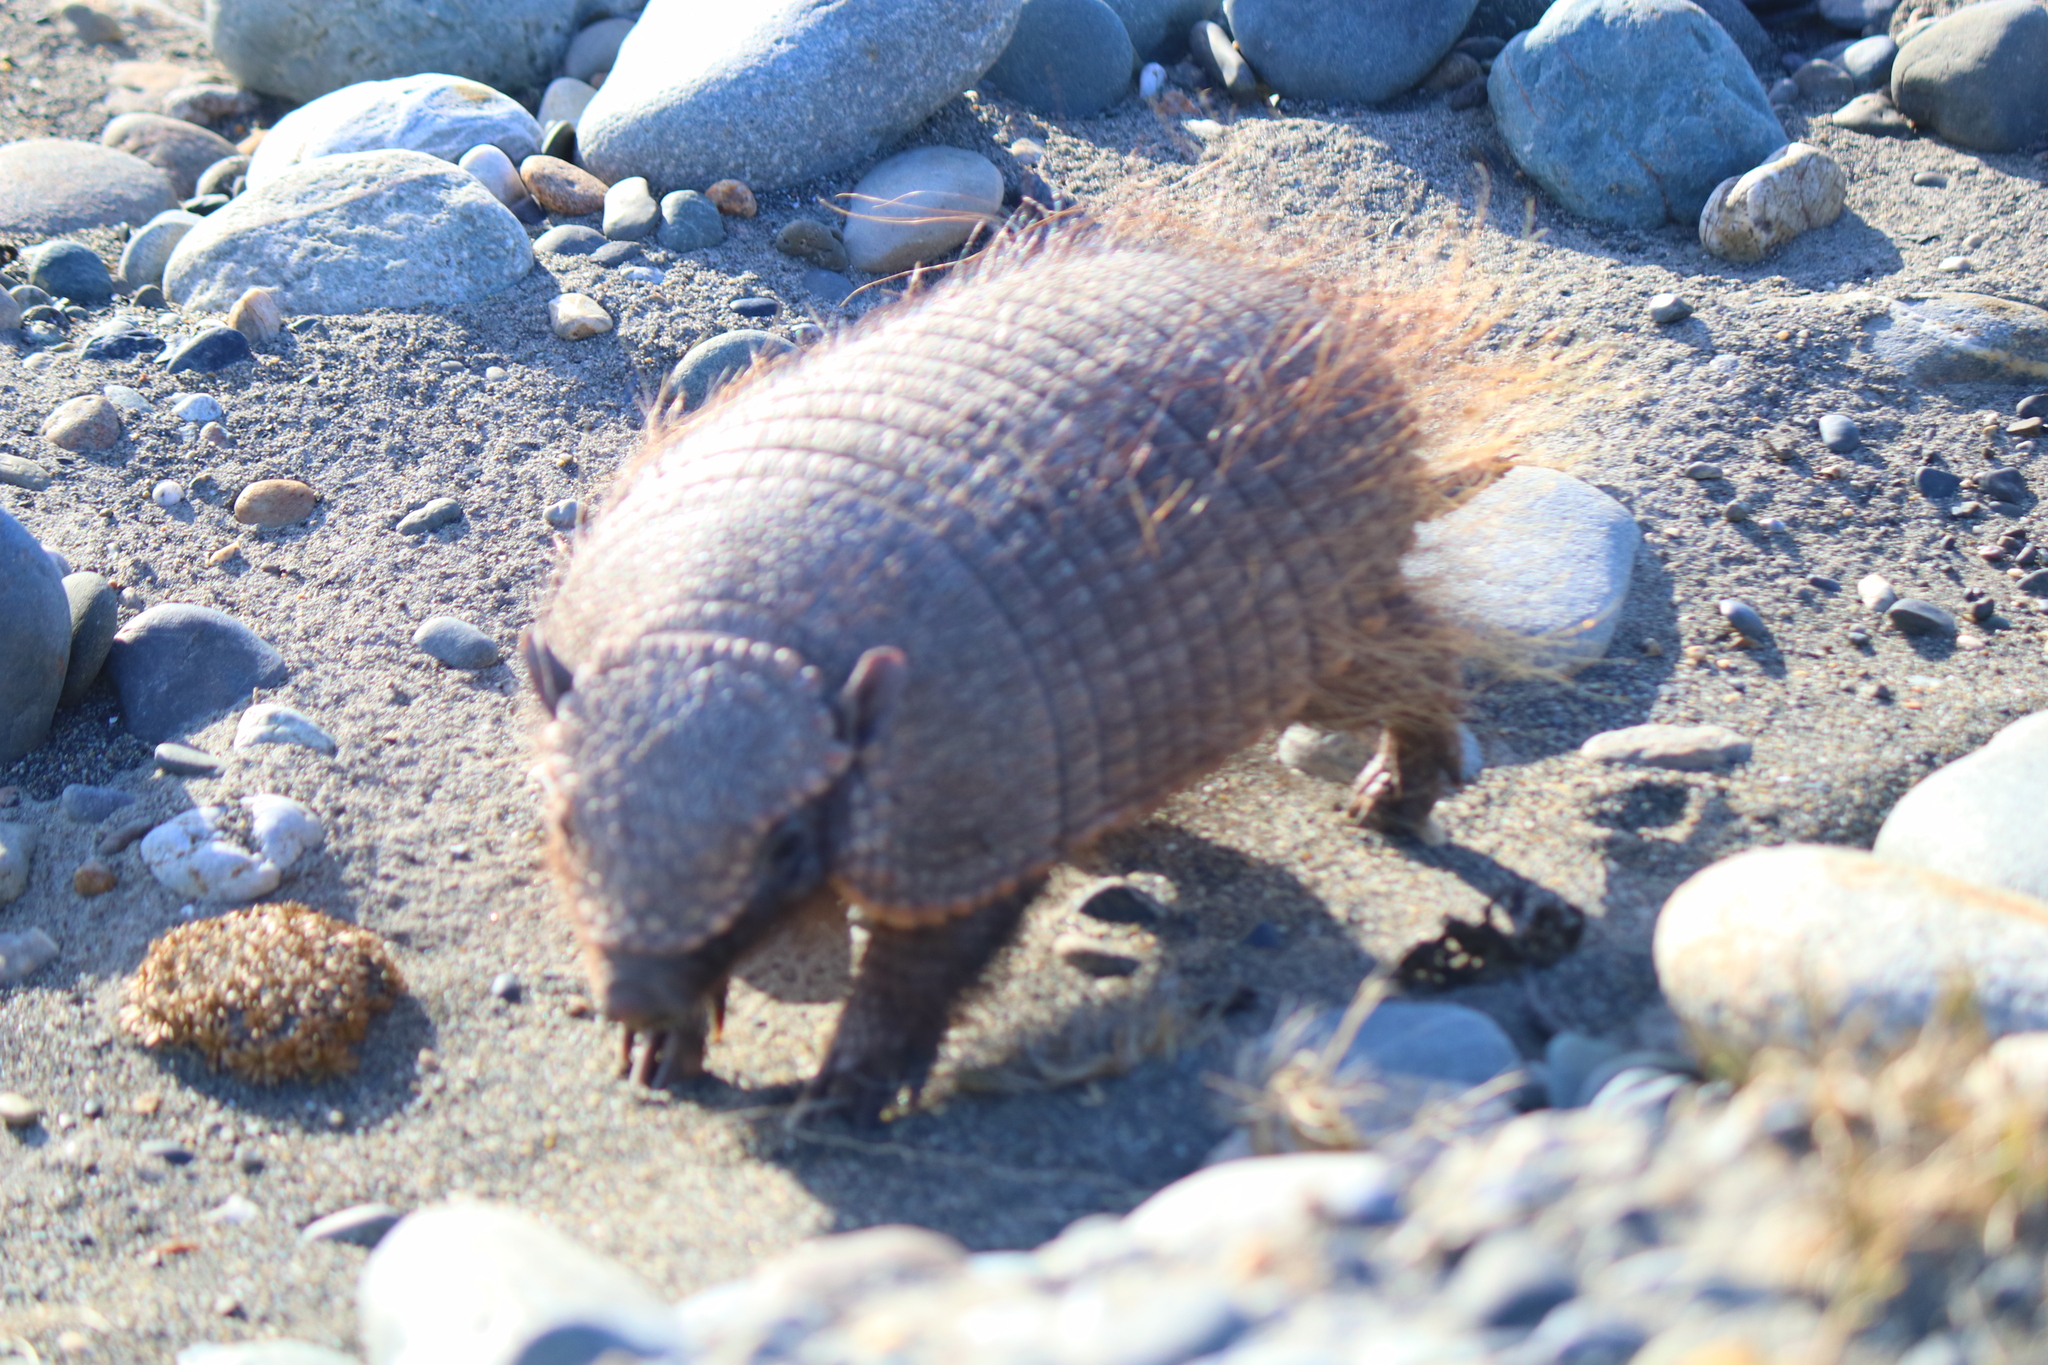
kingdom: Animalia
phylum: Chordata
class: Mammalia
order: Cingulata
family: Dasypodidae
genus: Chaetophractus
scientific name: Chaetophractus villosus
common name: Big hairy armadillo
